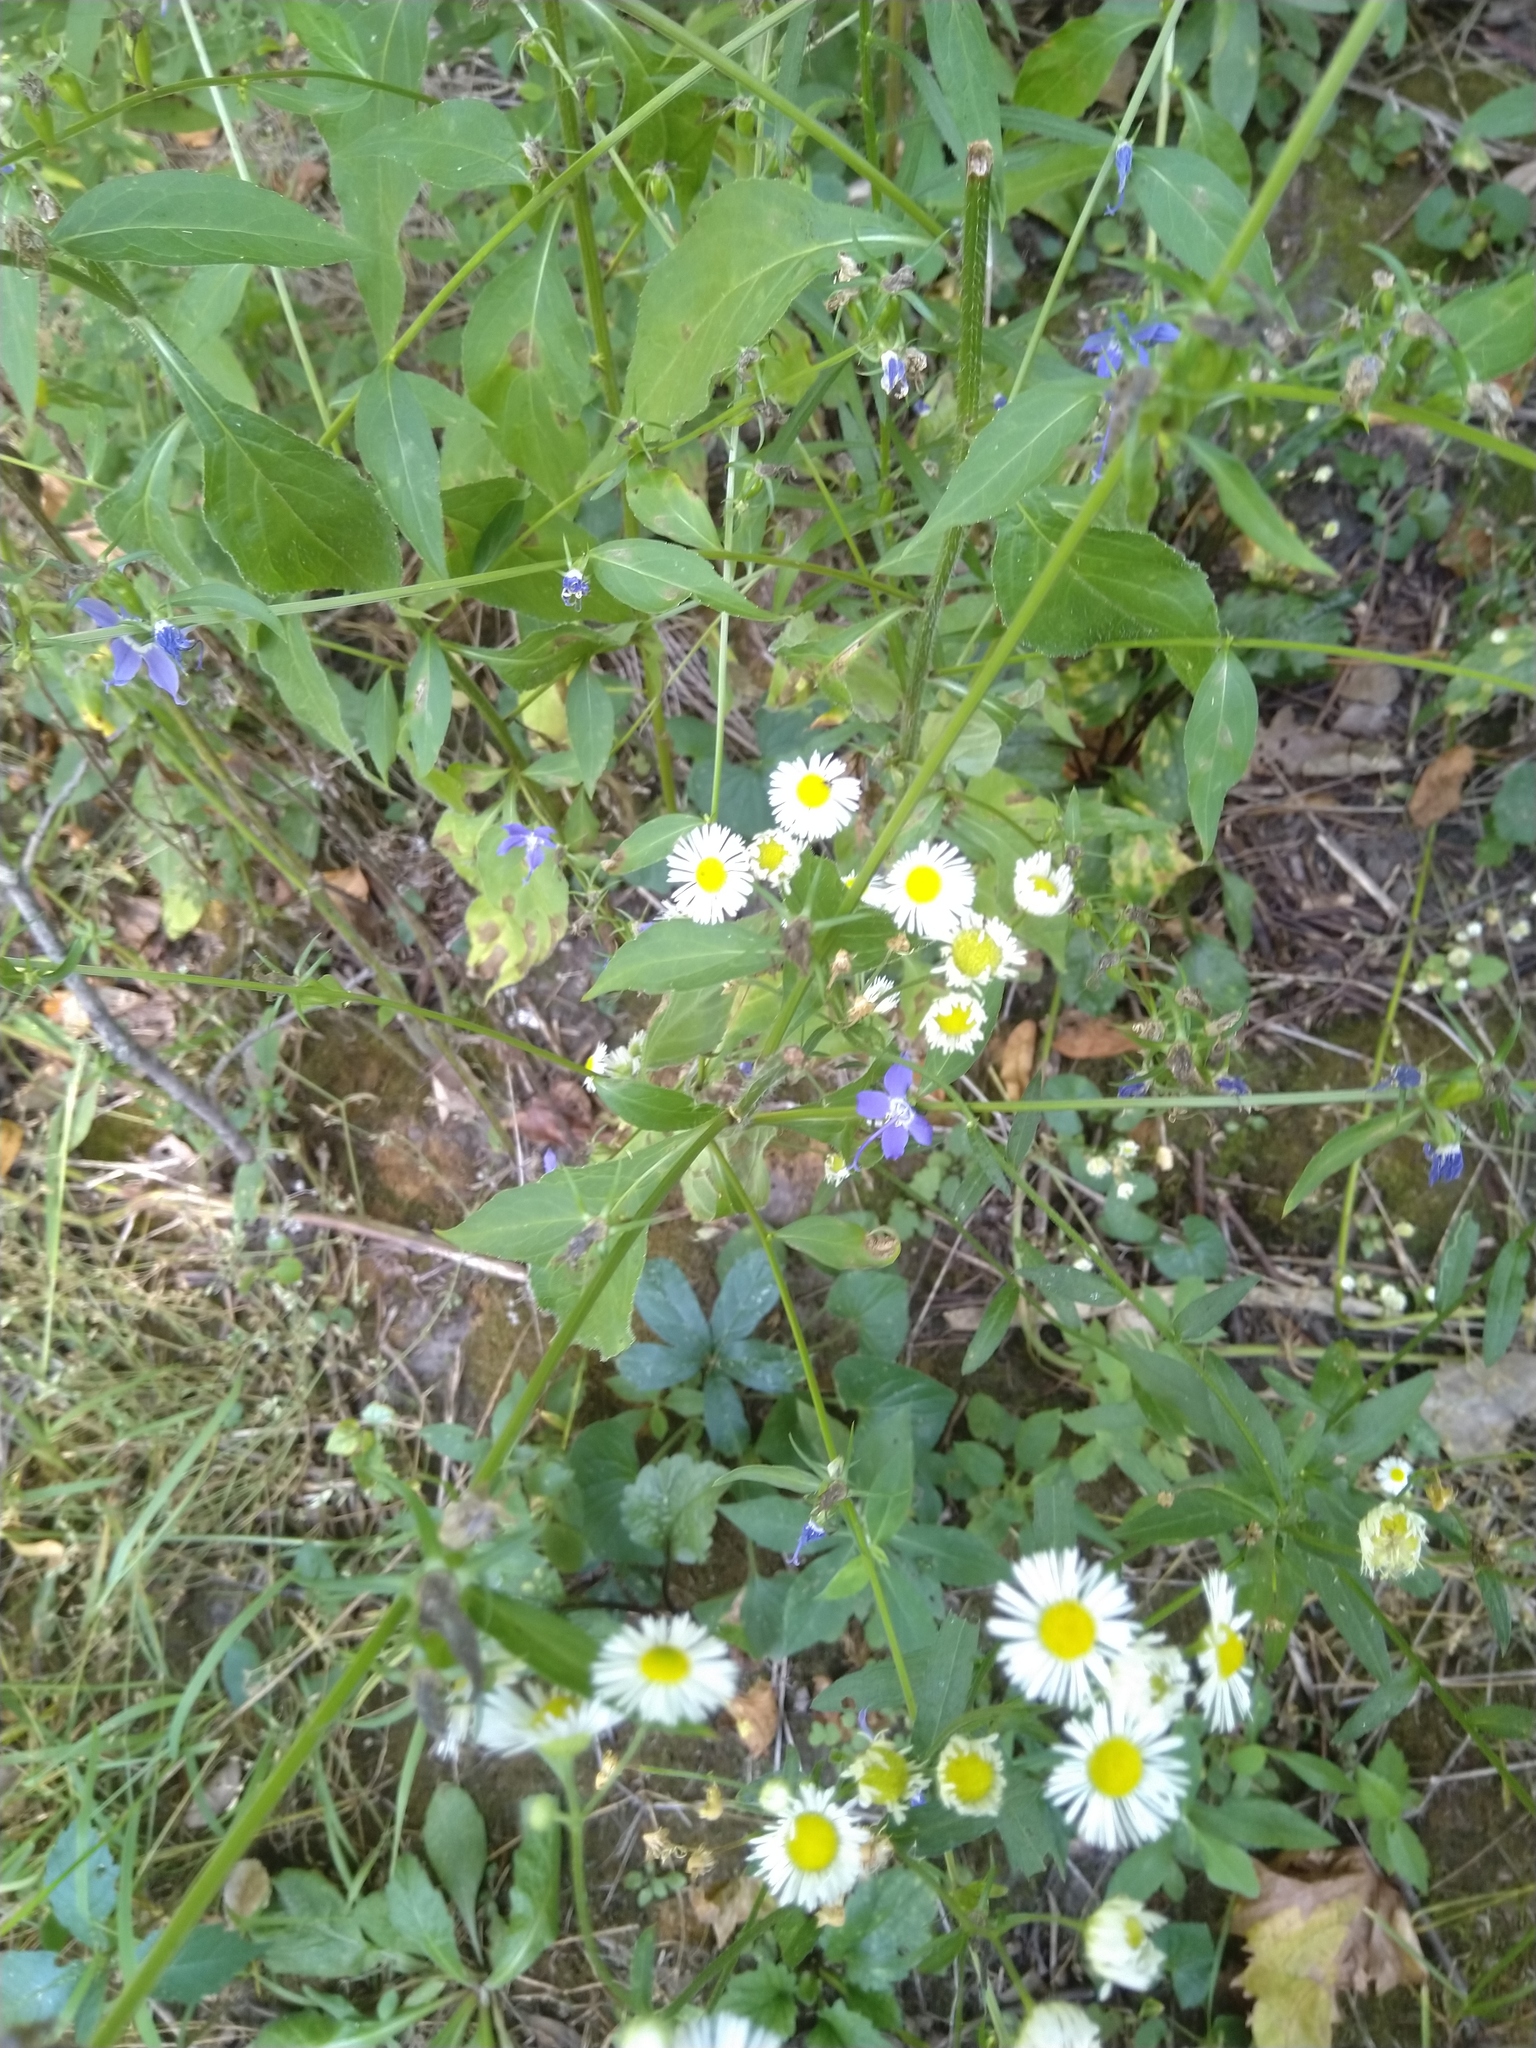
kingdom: Plantae
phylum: Tracheophyta
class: Magnoliopsida
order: Asterales
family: Campanulaceae
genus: Campanulastrum
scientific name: Campanulastrum americanum
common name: American bellflower
